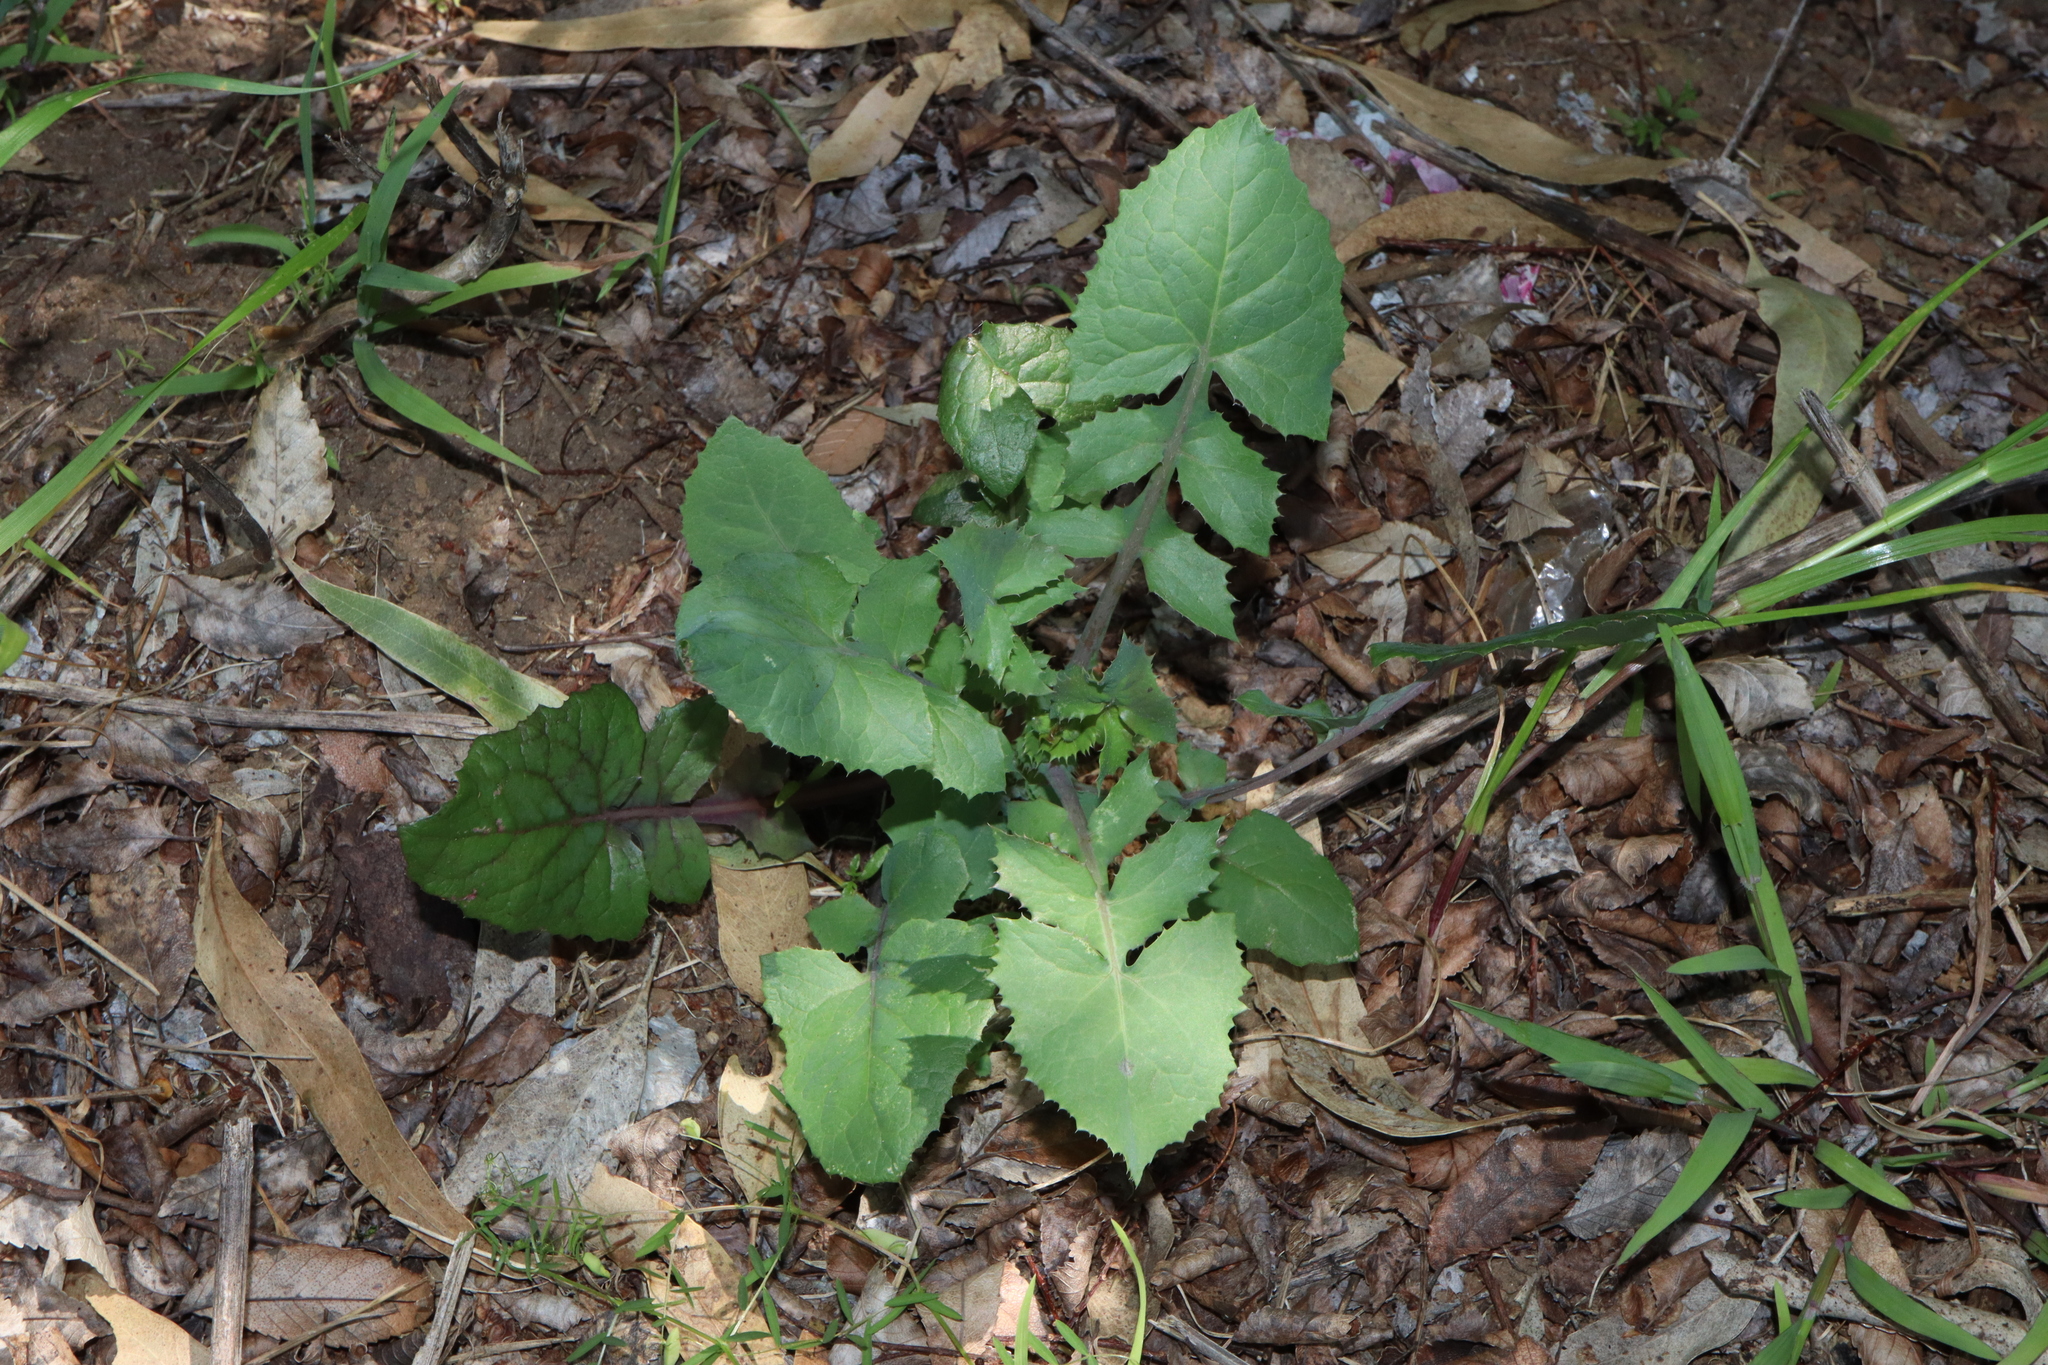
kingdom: Plantae
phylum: Tracheophyta
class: Magnoliopsida
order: Asterales
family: Asteraceae
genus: Sonchus
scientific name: Sonchus oleraceus
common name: Common sowthistle
